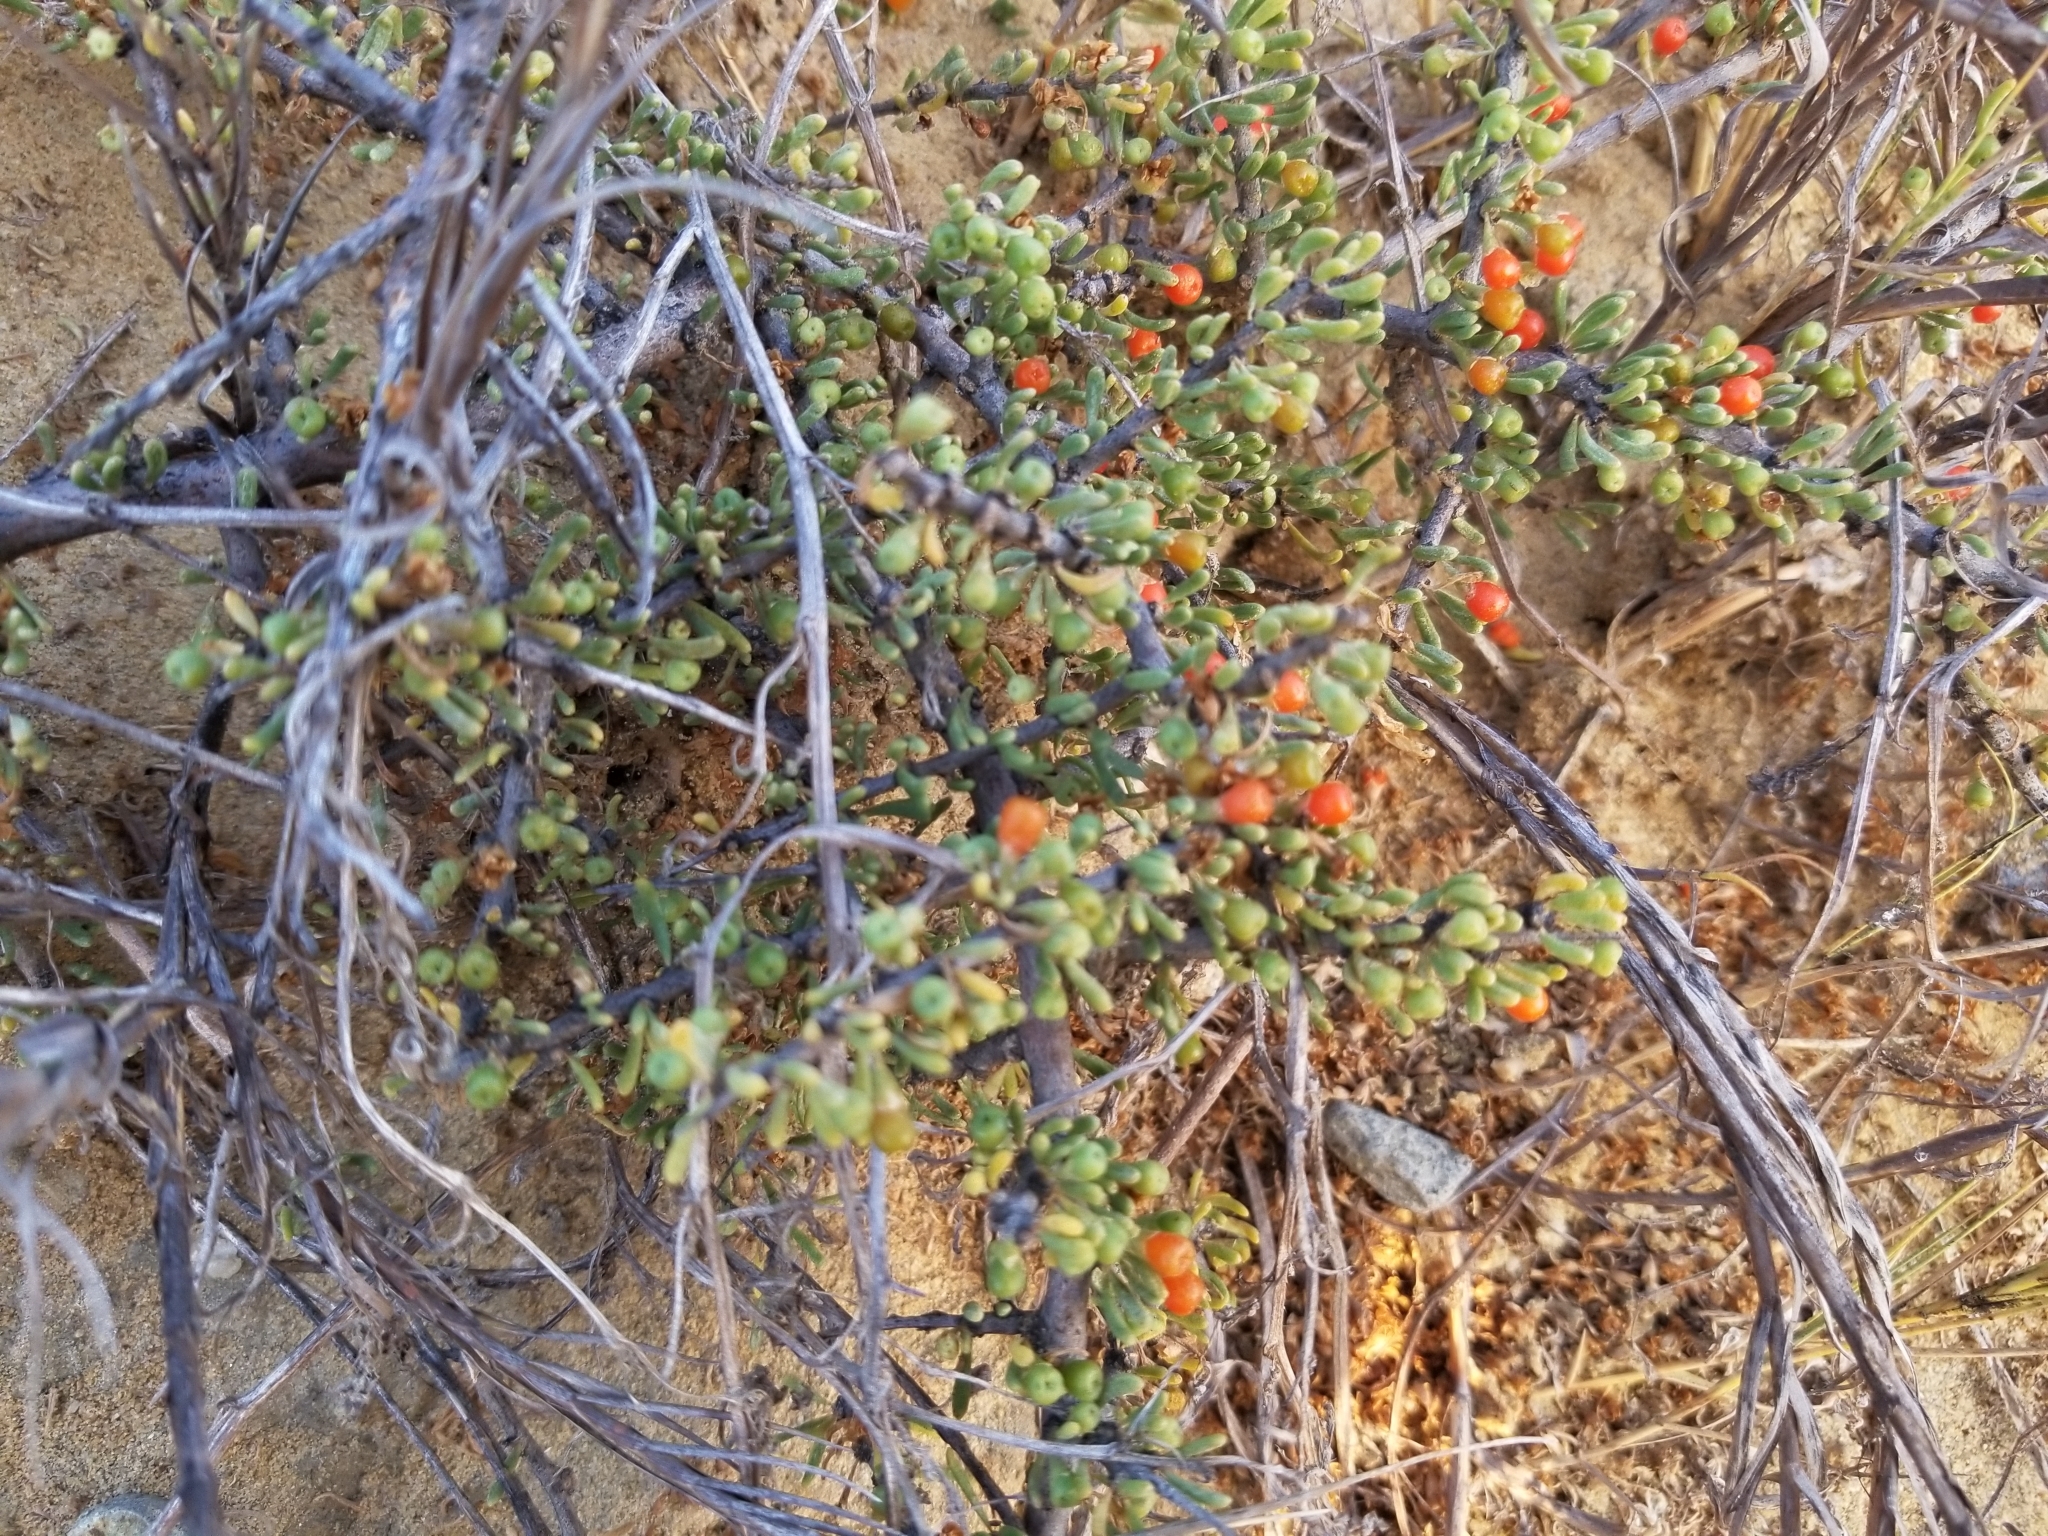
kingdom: Plantae
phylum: Tracheophyta
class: Magnoliopsida
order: Solanales
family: Solanaceae
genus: Lycium
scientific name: Lycium californicum
